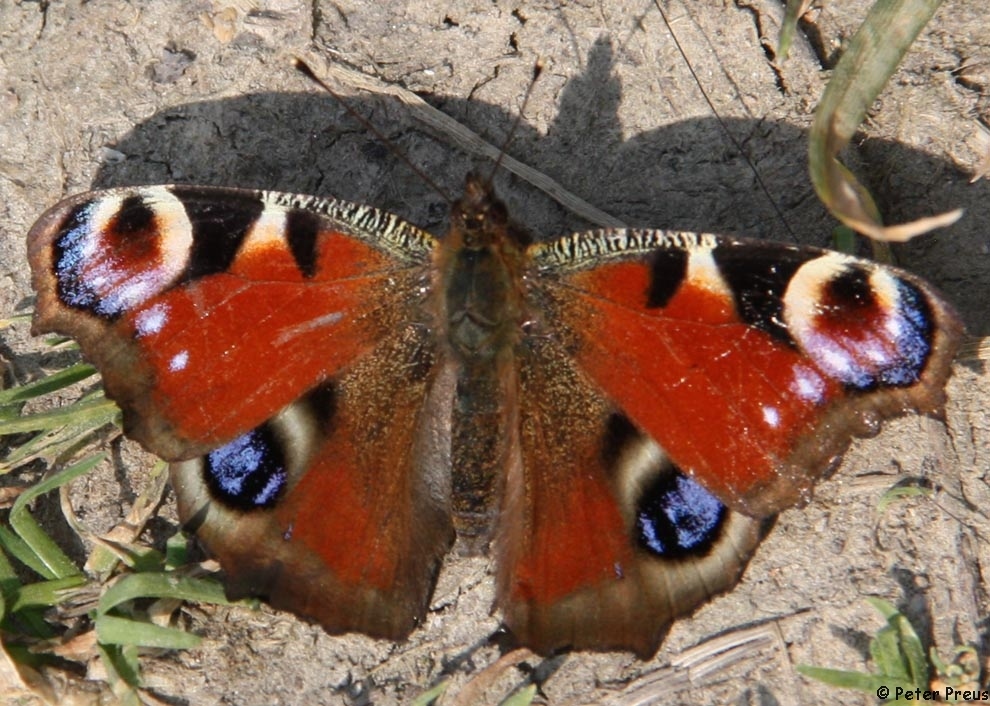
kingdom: Animalia
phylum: Arthropoda
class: Insecta
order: Lepidoptera
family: Nymphalidae
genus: Aglais
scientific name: Aglais io
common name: Peacock
